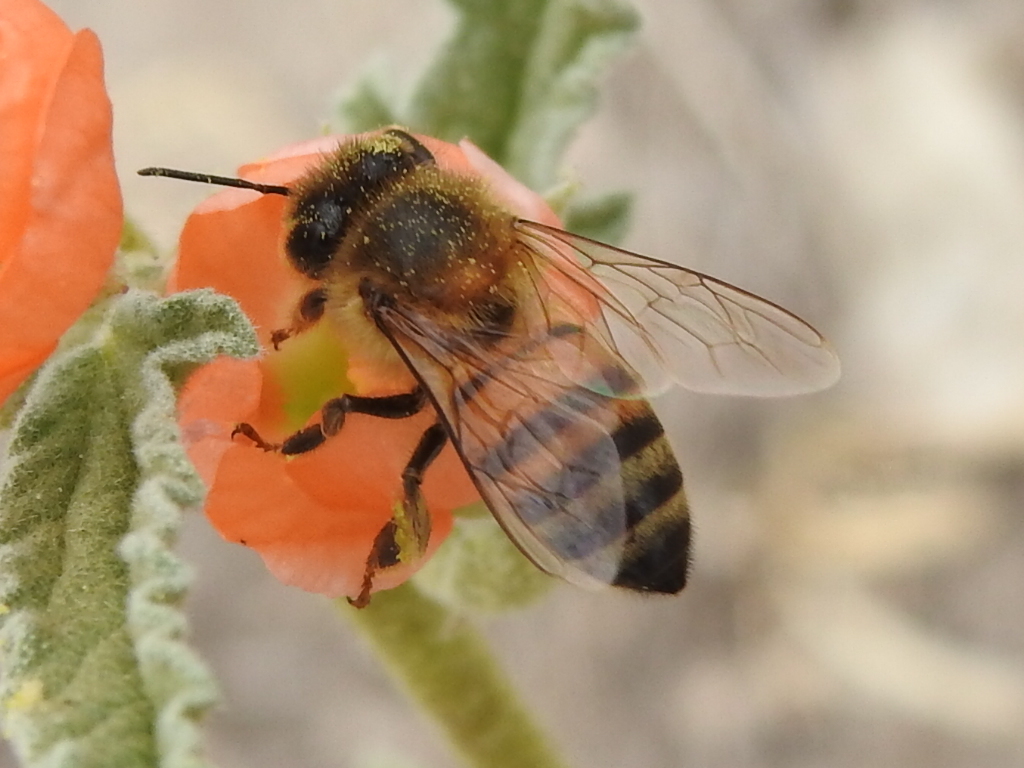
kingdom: Animalia
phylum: Arthropoda
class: Insecta
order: Hymenoptera
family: Apidae
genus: Apis
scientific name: Apis mellifera
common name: Honey bee
